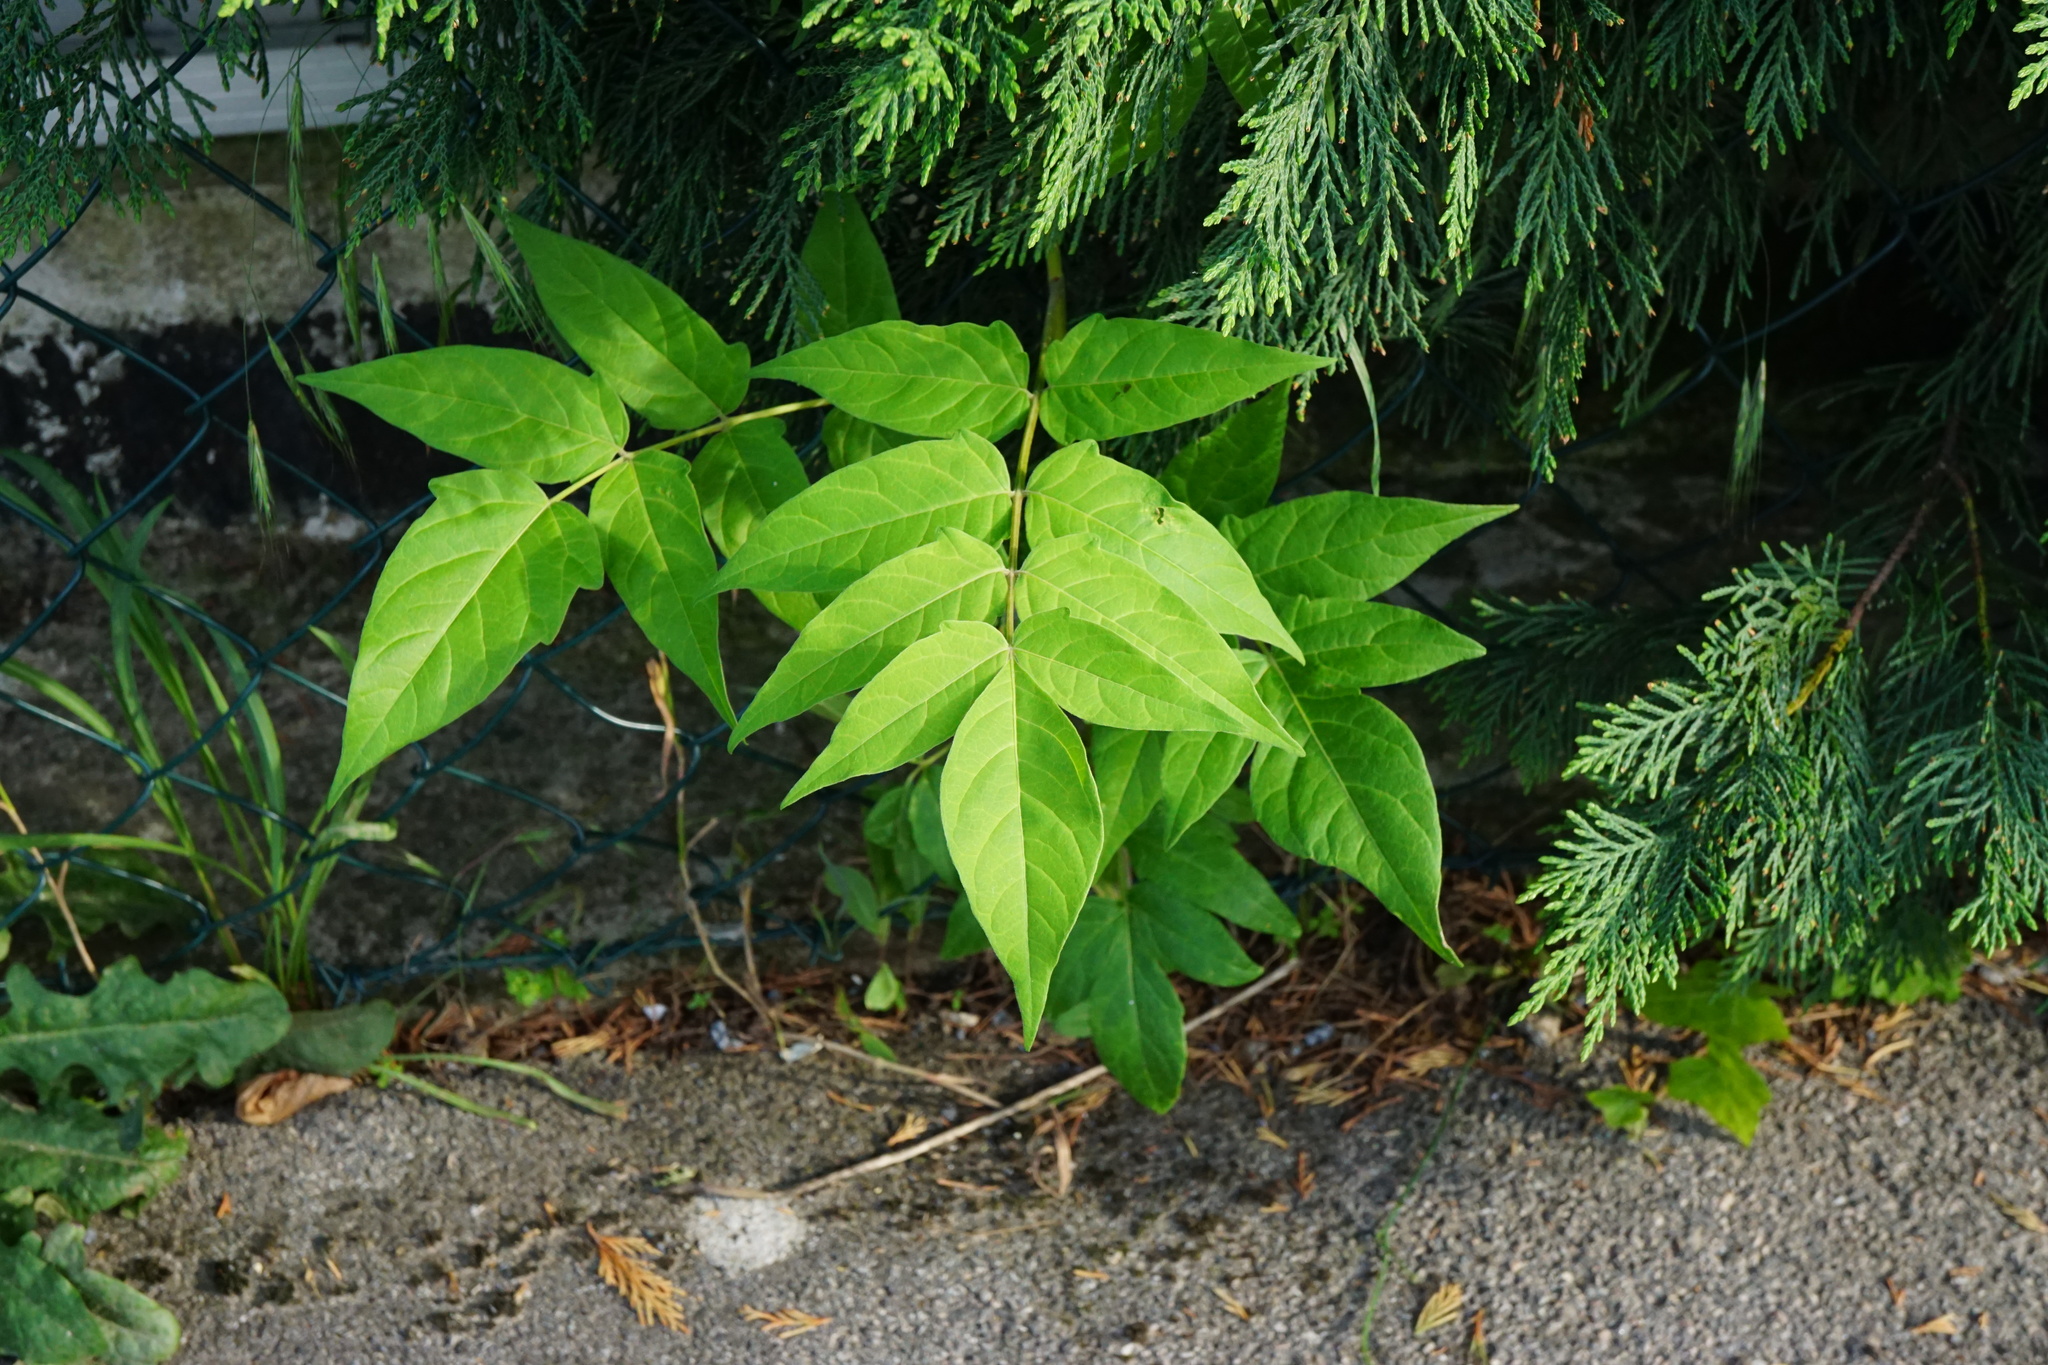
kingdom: Plantae
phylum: Tracheophyta
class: Magnoliopsida
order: Sapindales
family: Simaroubaceae
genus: Ailanthus
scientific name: Ailanthus altissima
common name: Tree-of-heaven
